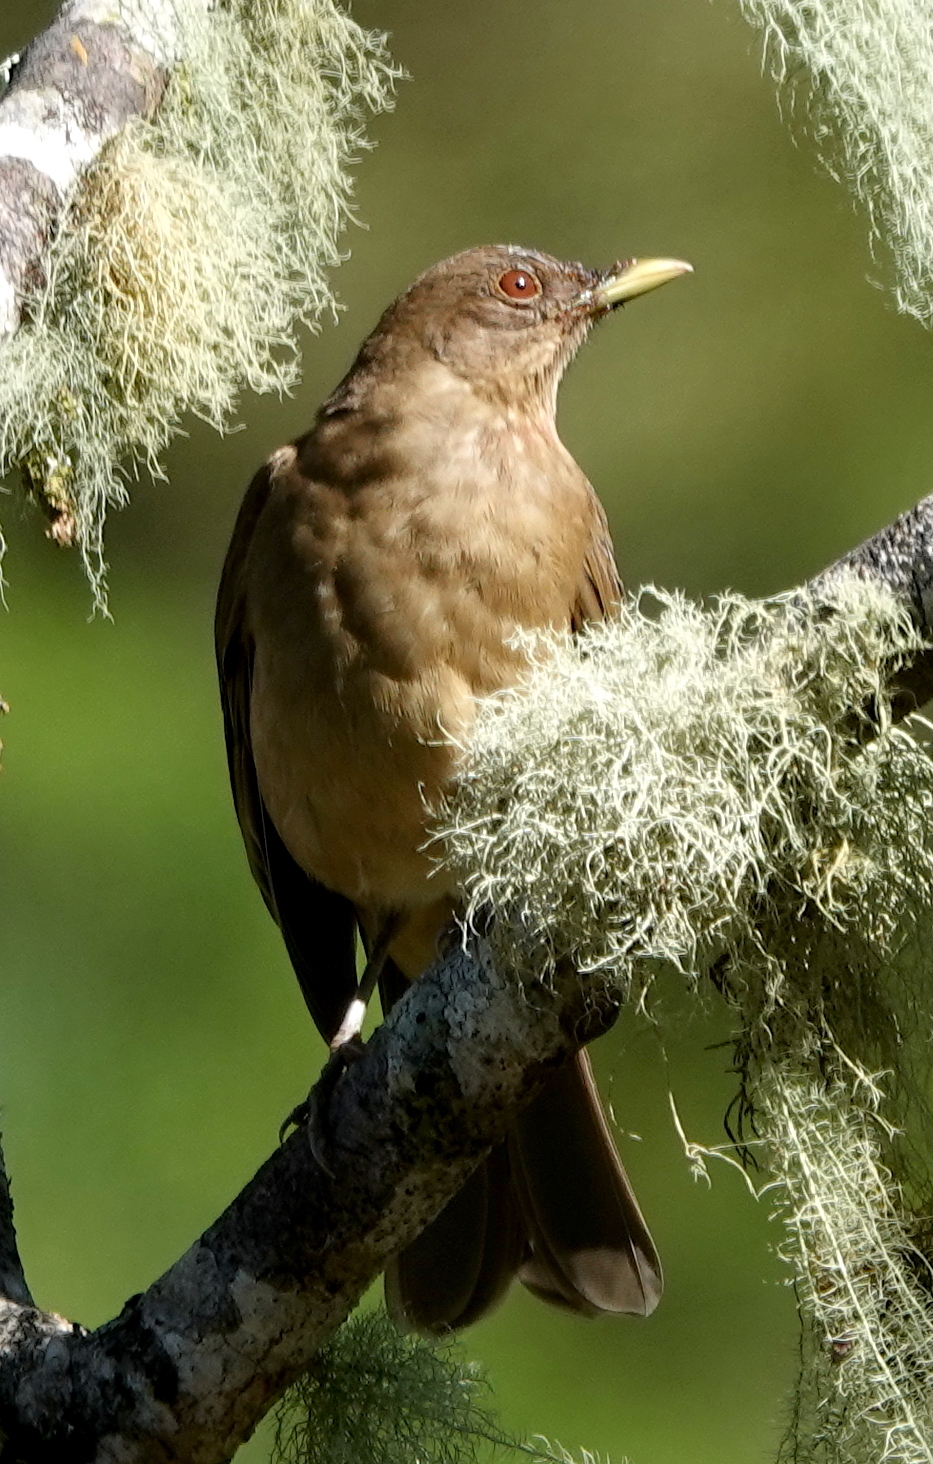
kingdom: Animalia
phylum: Chordata
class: Aves
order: Passeriformes
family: Turdidae
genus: Turdus
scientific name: Turdus grayi
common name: Clay-colored thrush
